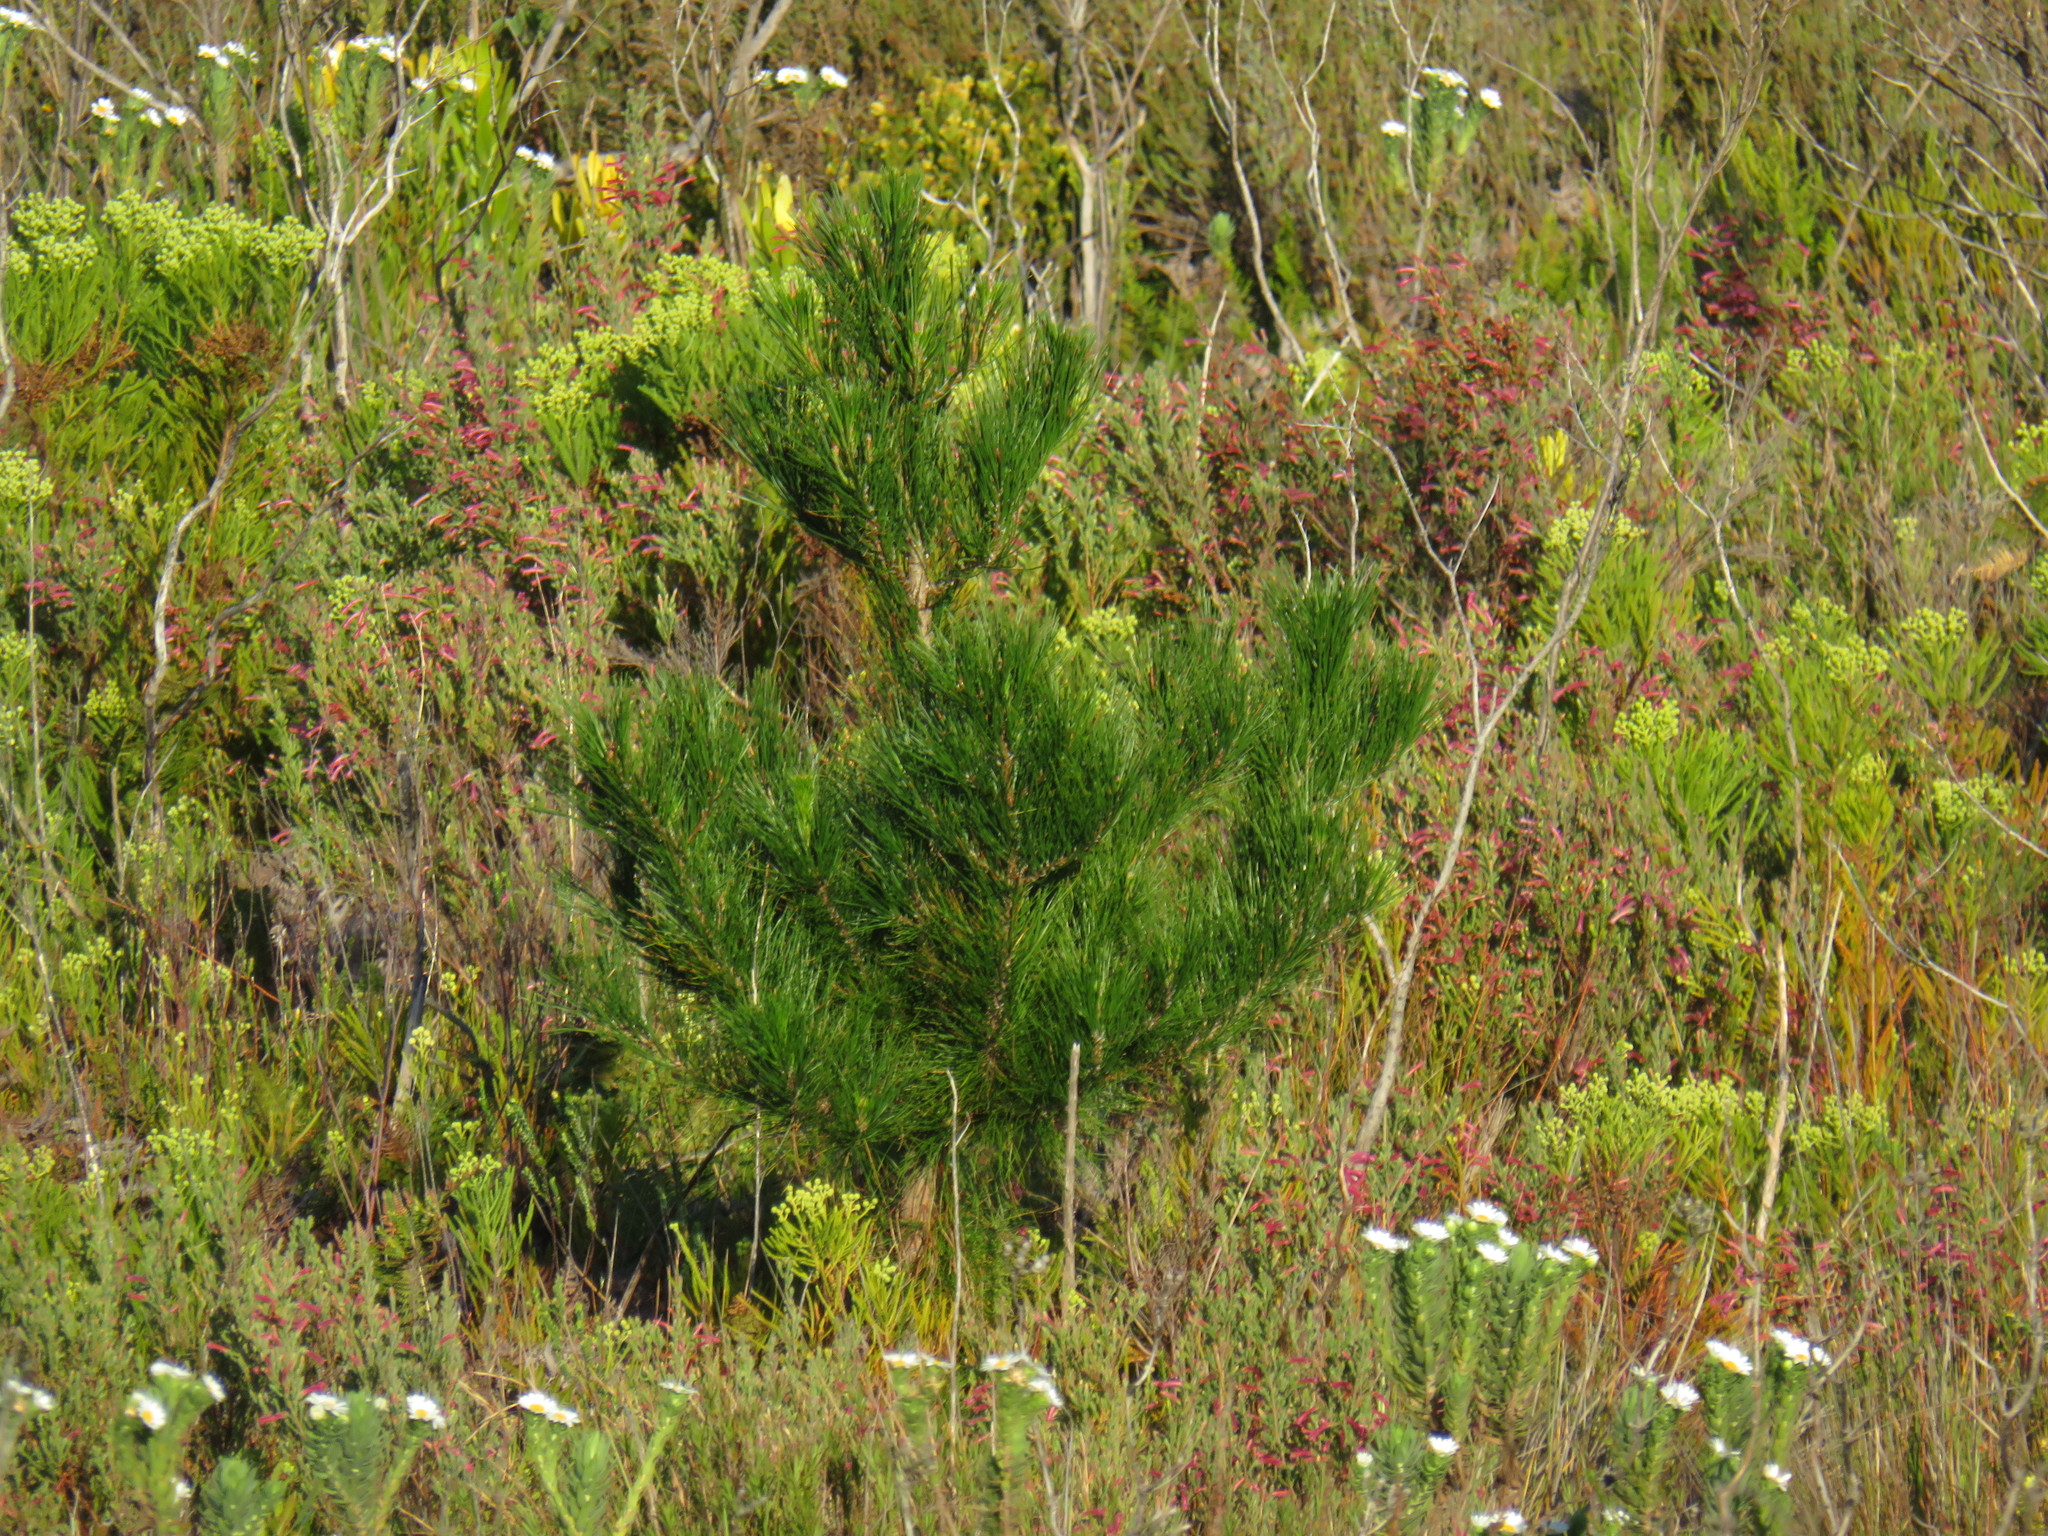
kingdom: Plantae
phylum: Tracheophyta
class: Pinopsida
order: Pinales
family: Pinaceae
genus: Pinus
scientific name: Pinus radiata
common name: Monterey pine
